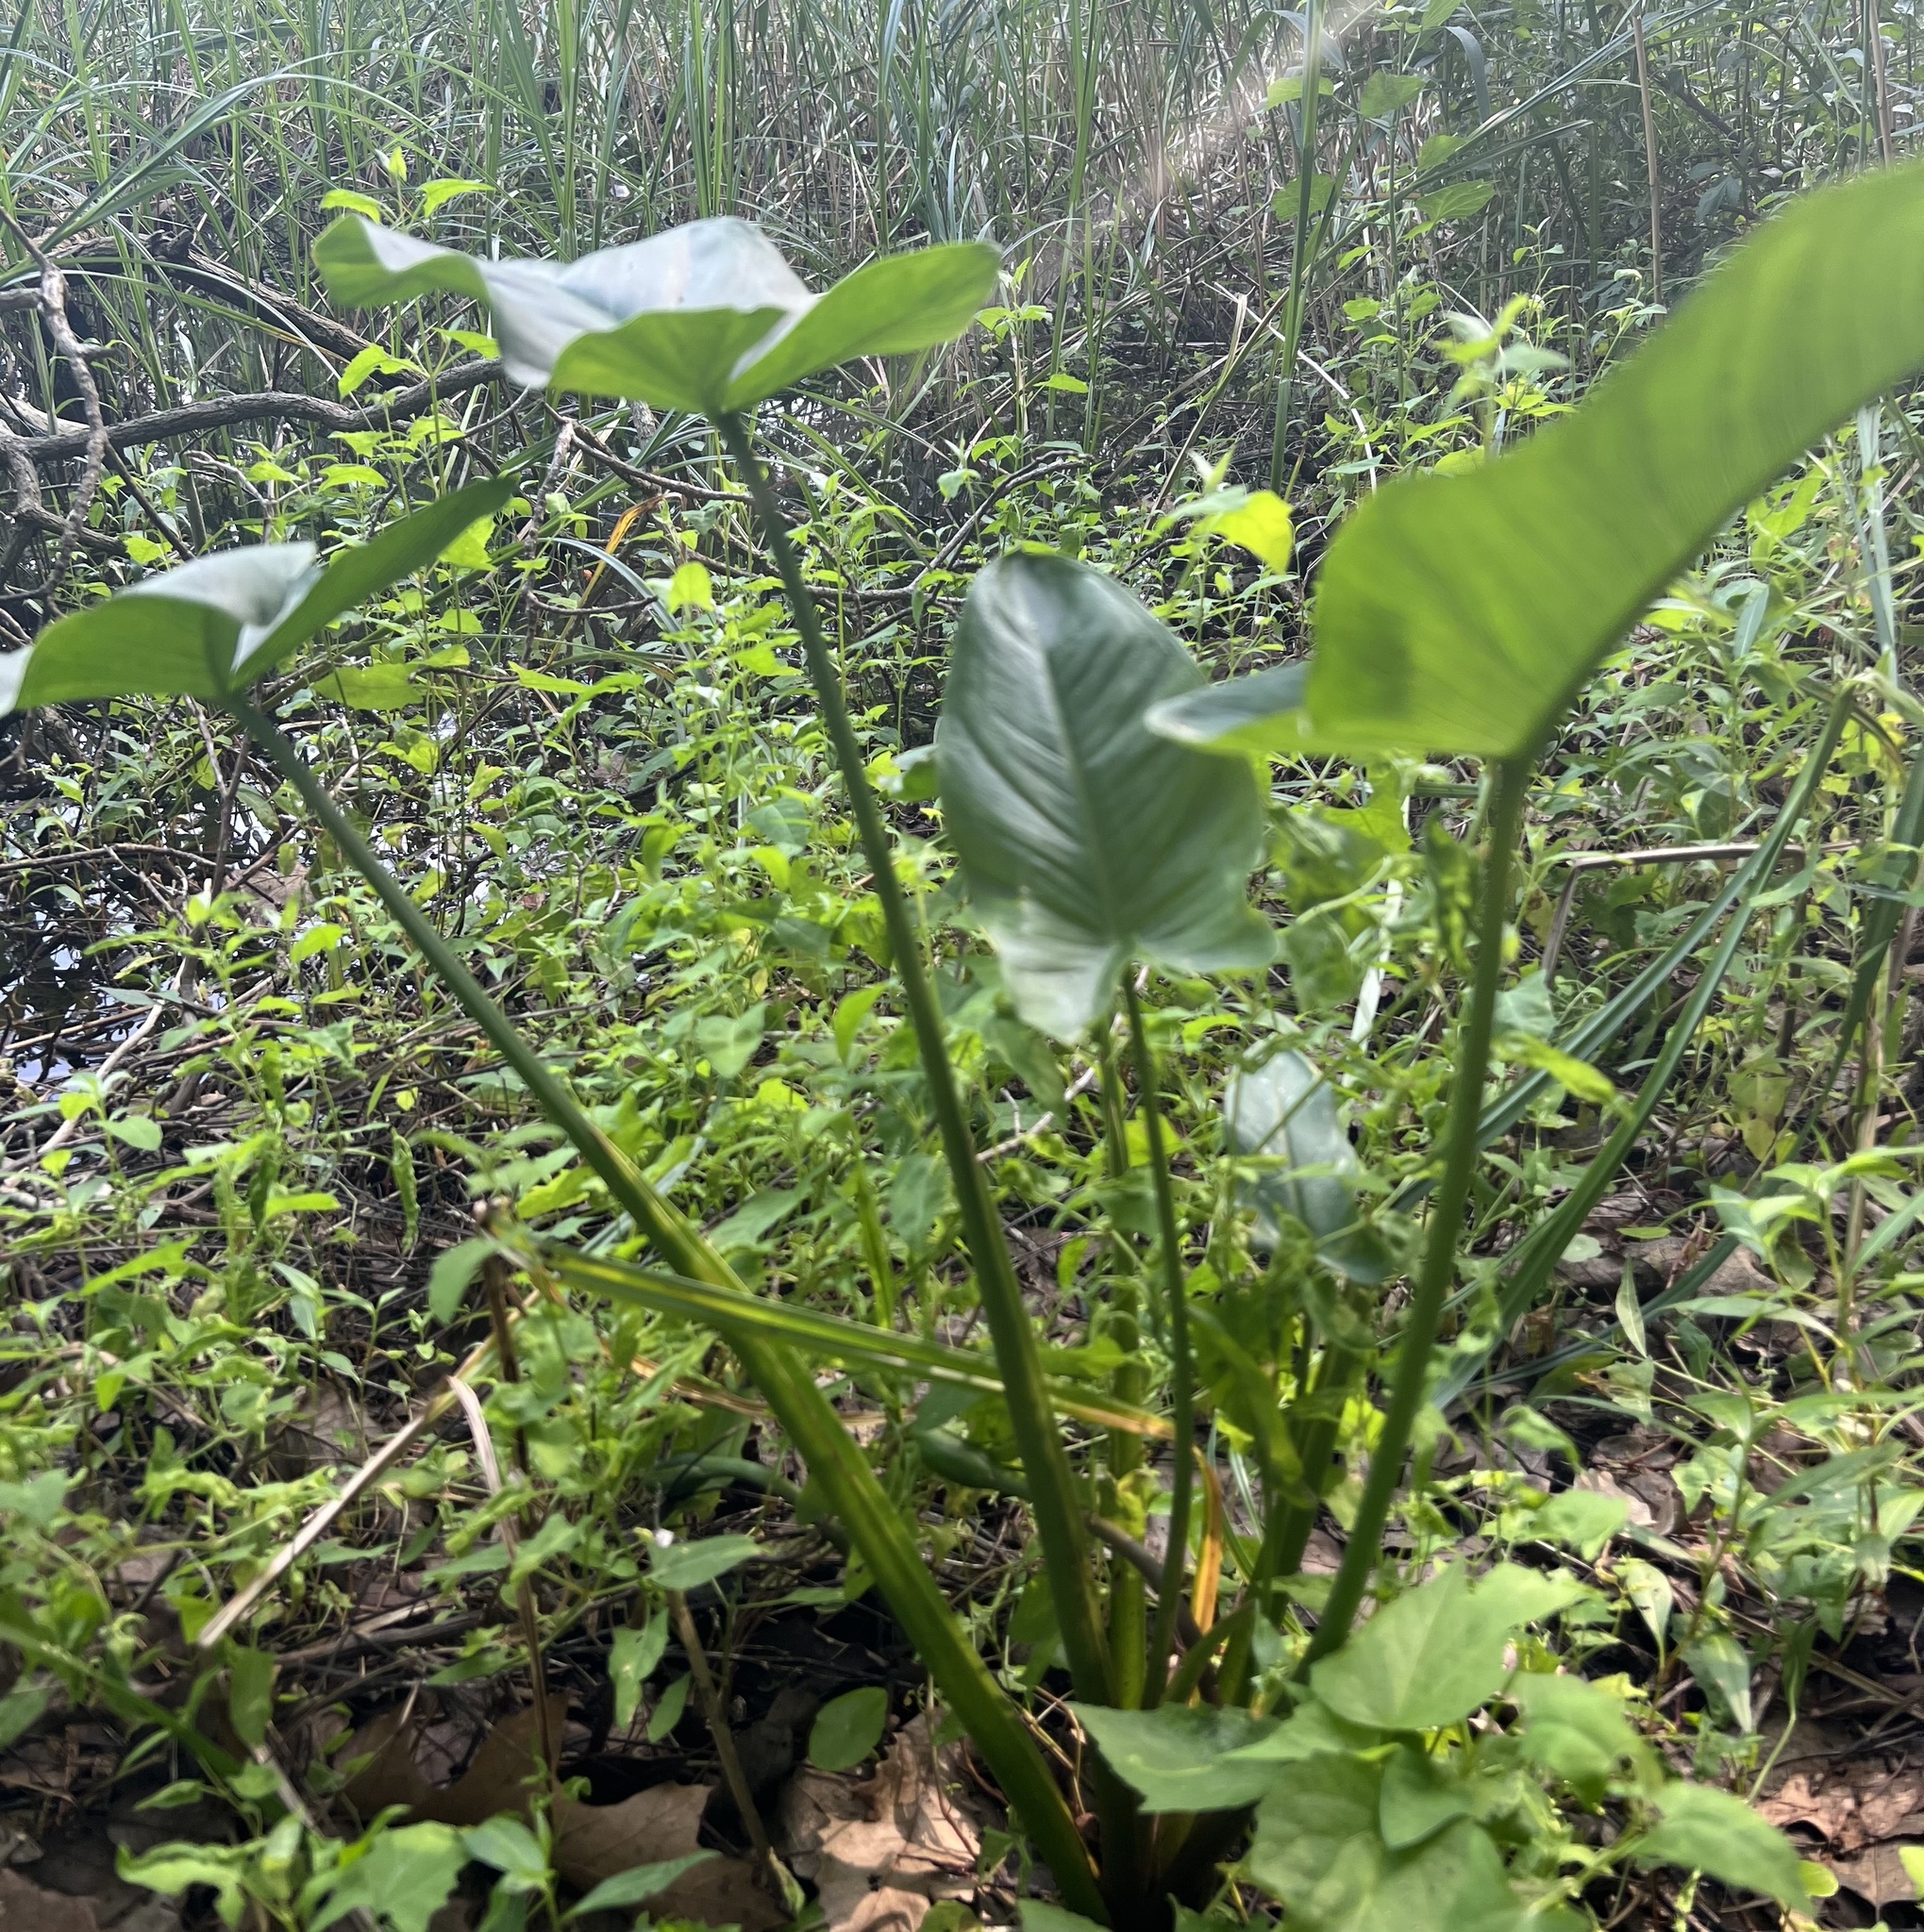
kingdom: Plantae
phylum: Tracheophyta
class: Liliopsida
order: Alismatales
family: Araceae
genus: Peltandra
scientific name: Peltandra virginica
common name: Arrow arum
